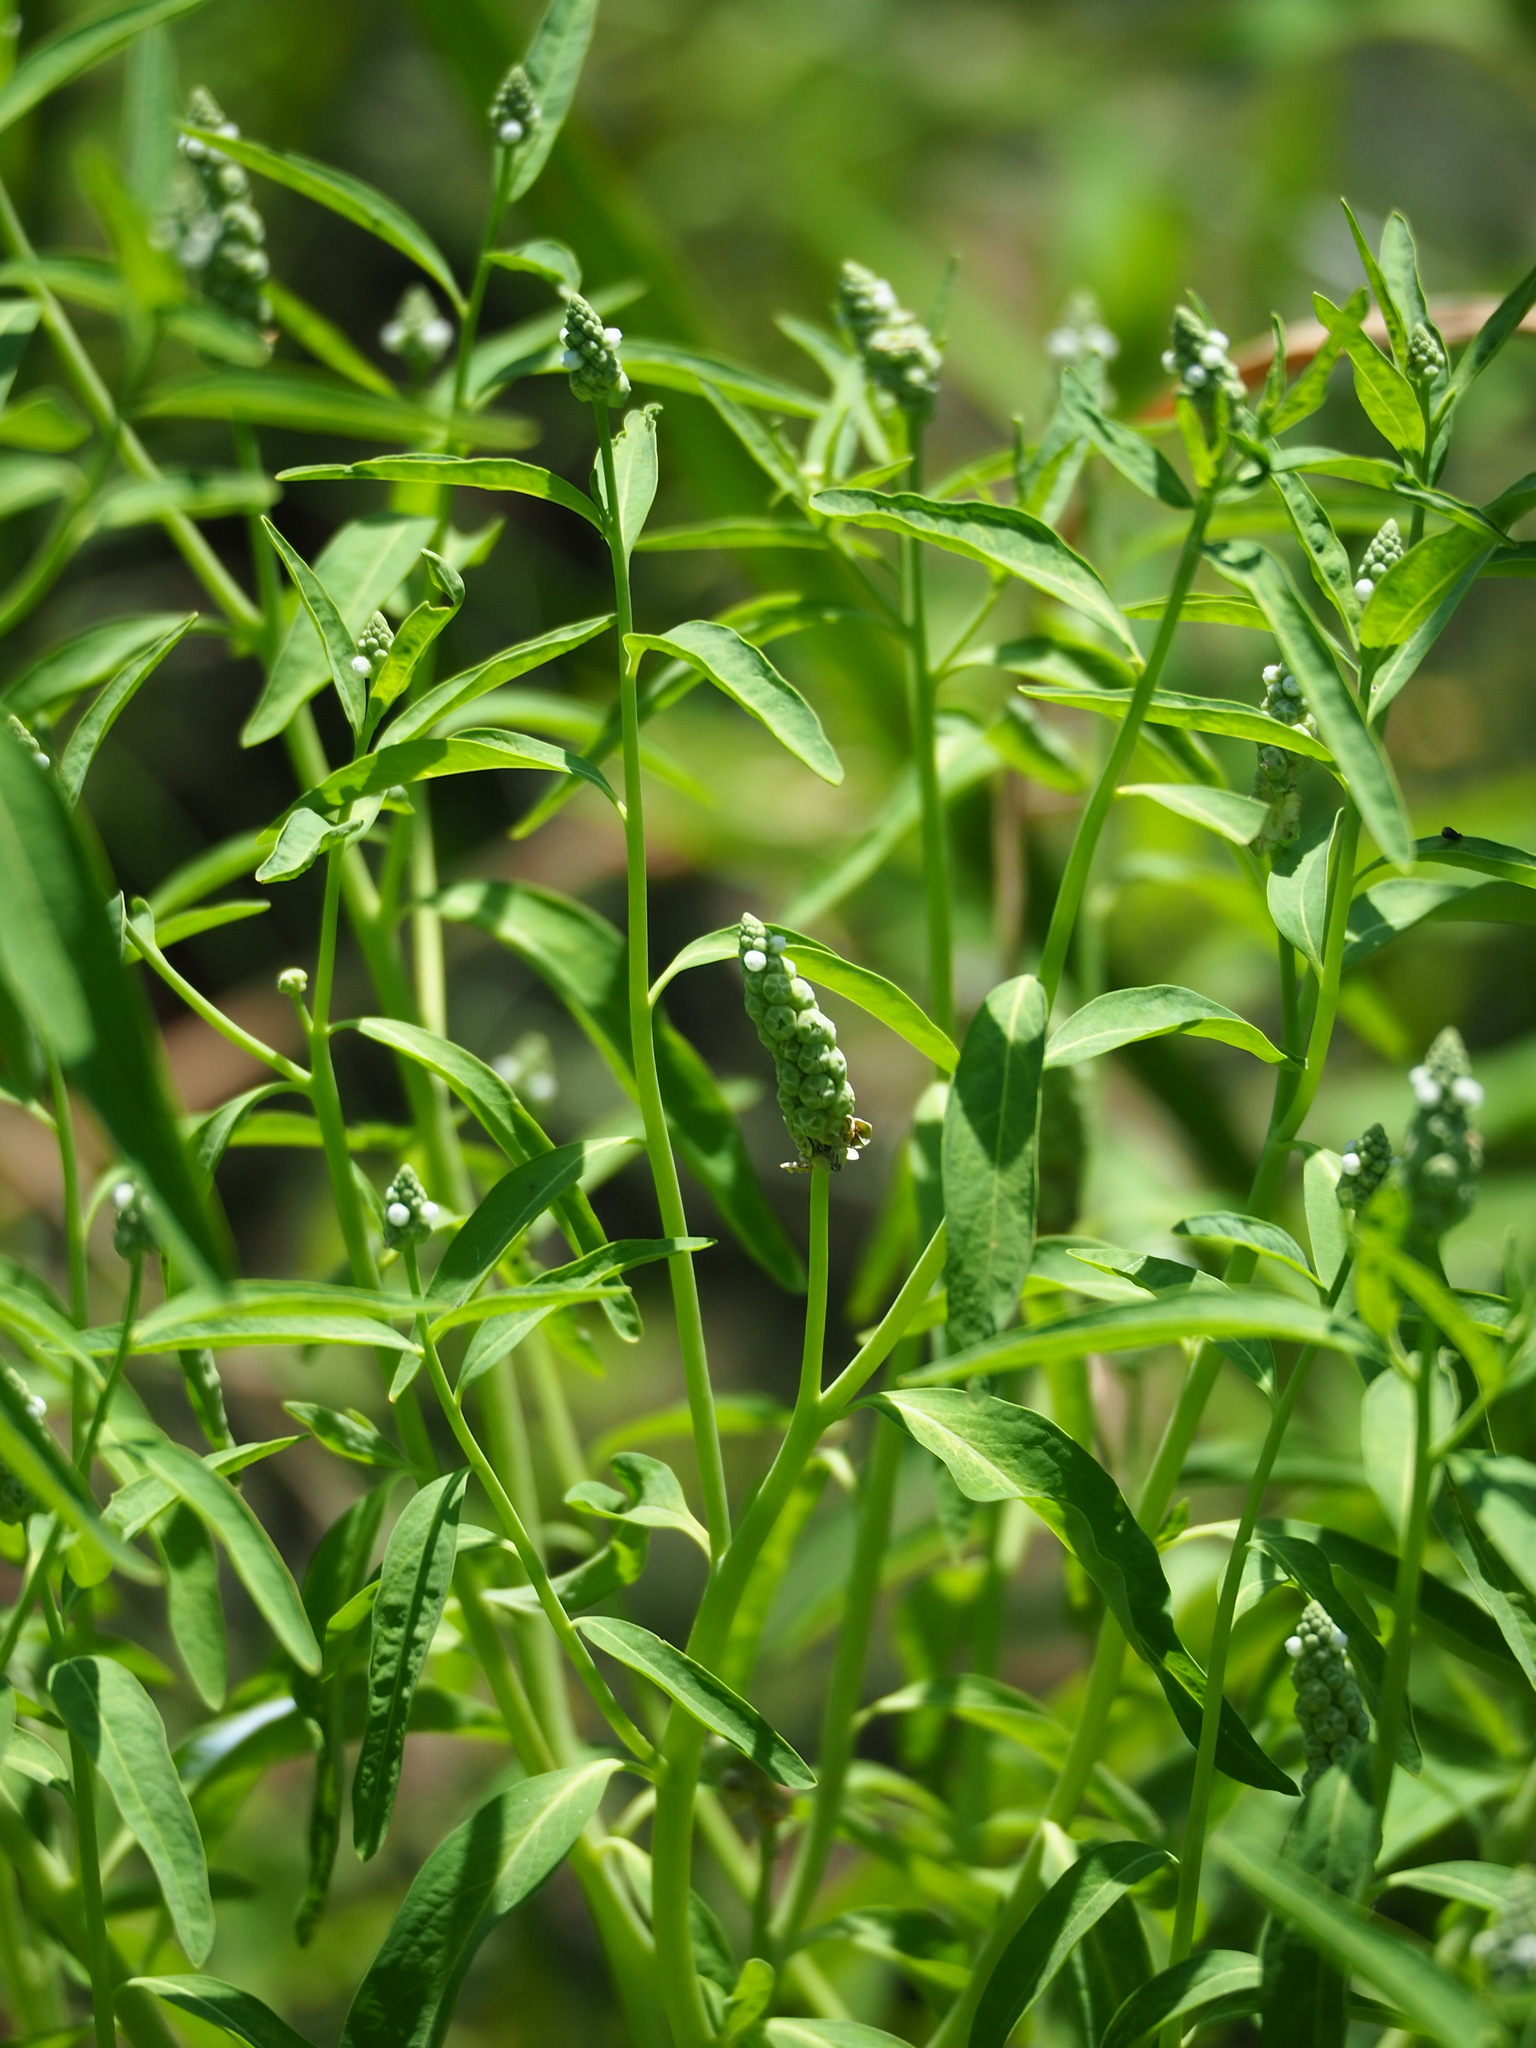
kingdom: Plantae
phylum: Tracheophyta
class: Magnoliopsida
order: Solanales
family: Sphenocleaceae
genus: Sphenoclea
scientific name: Sphenoclea zeylanica
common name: Chickenspike
